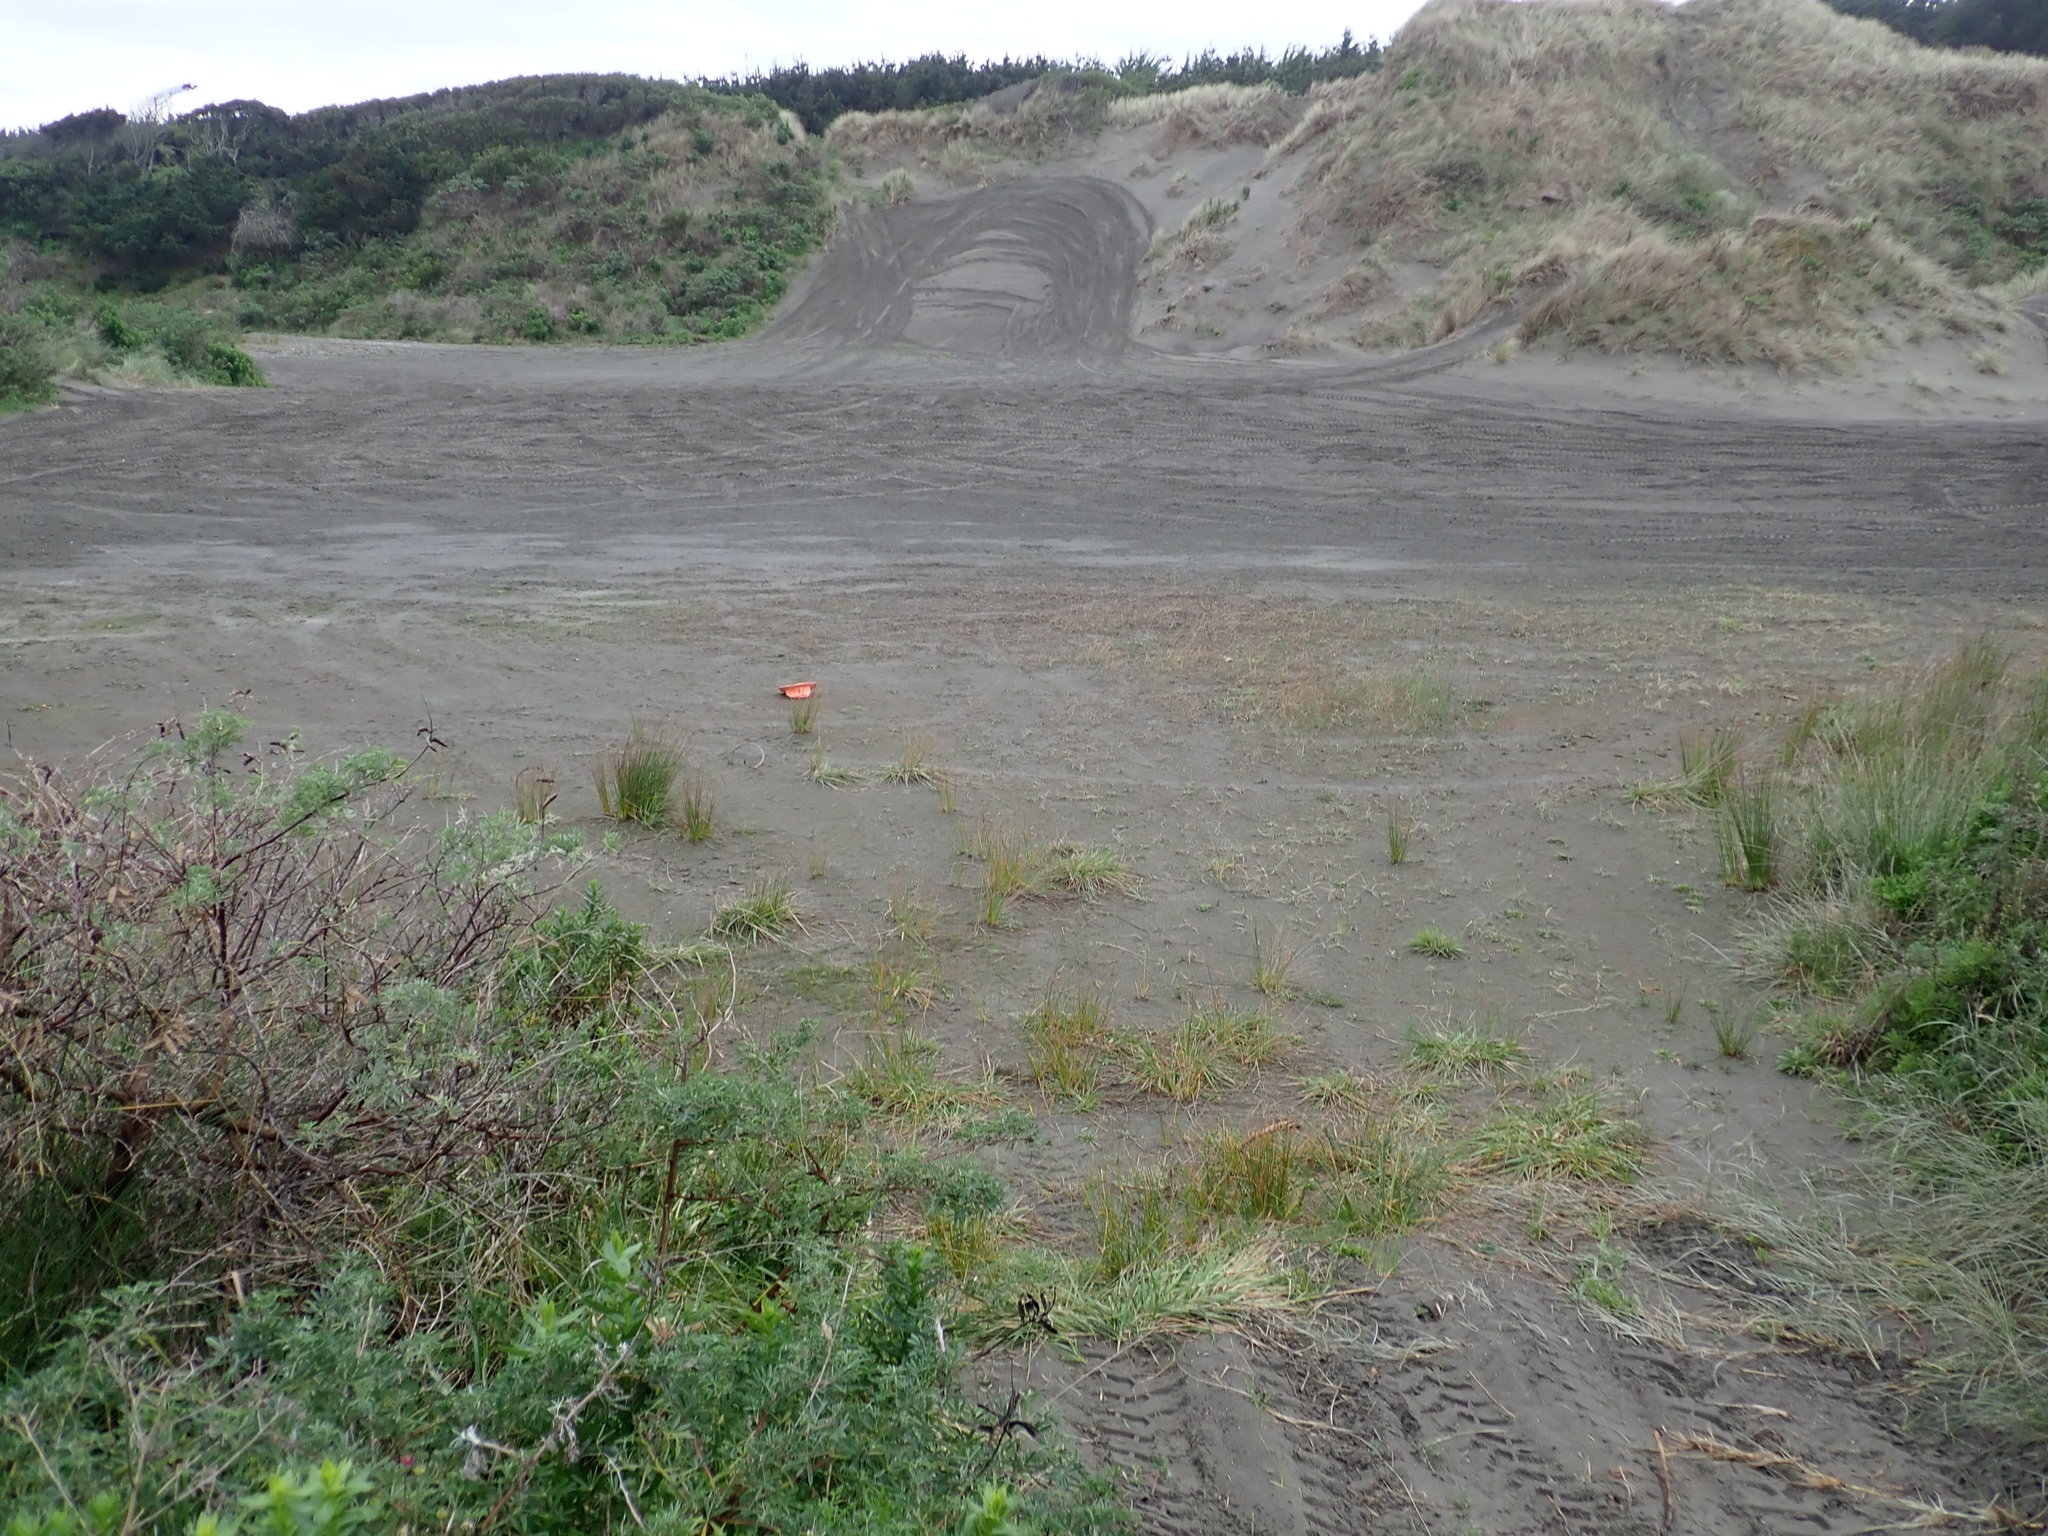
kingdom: Plantae
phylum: Tracheophyta
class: Magnoliopsida
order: Lamiales
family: Plantaginaceae
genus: Plantago
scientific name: Plantago coronopus
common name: Buck's-horn plantain
